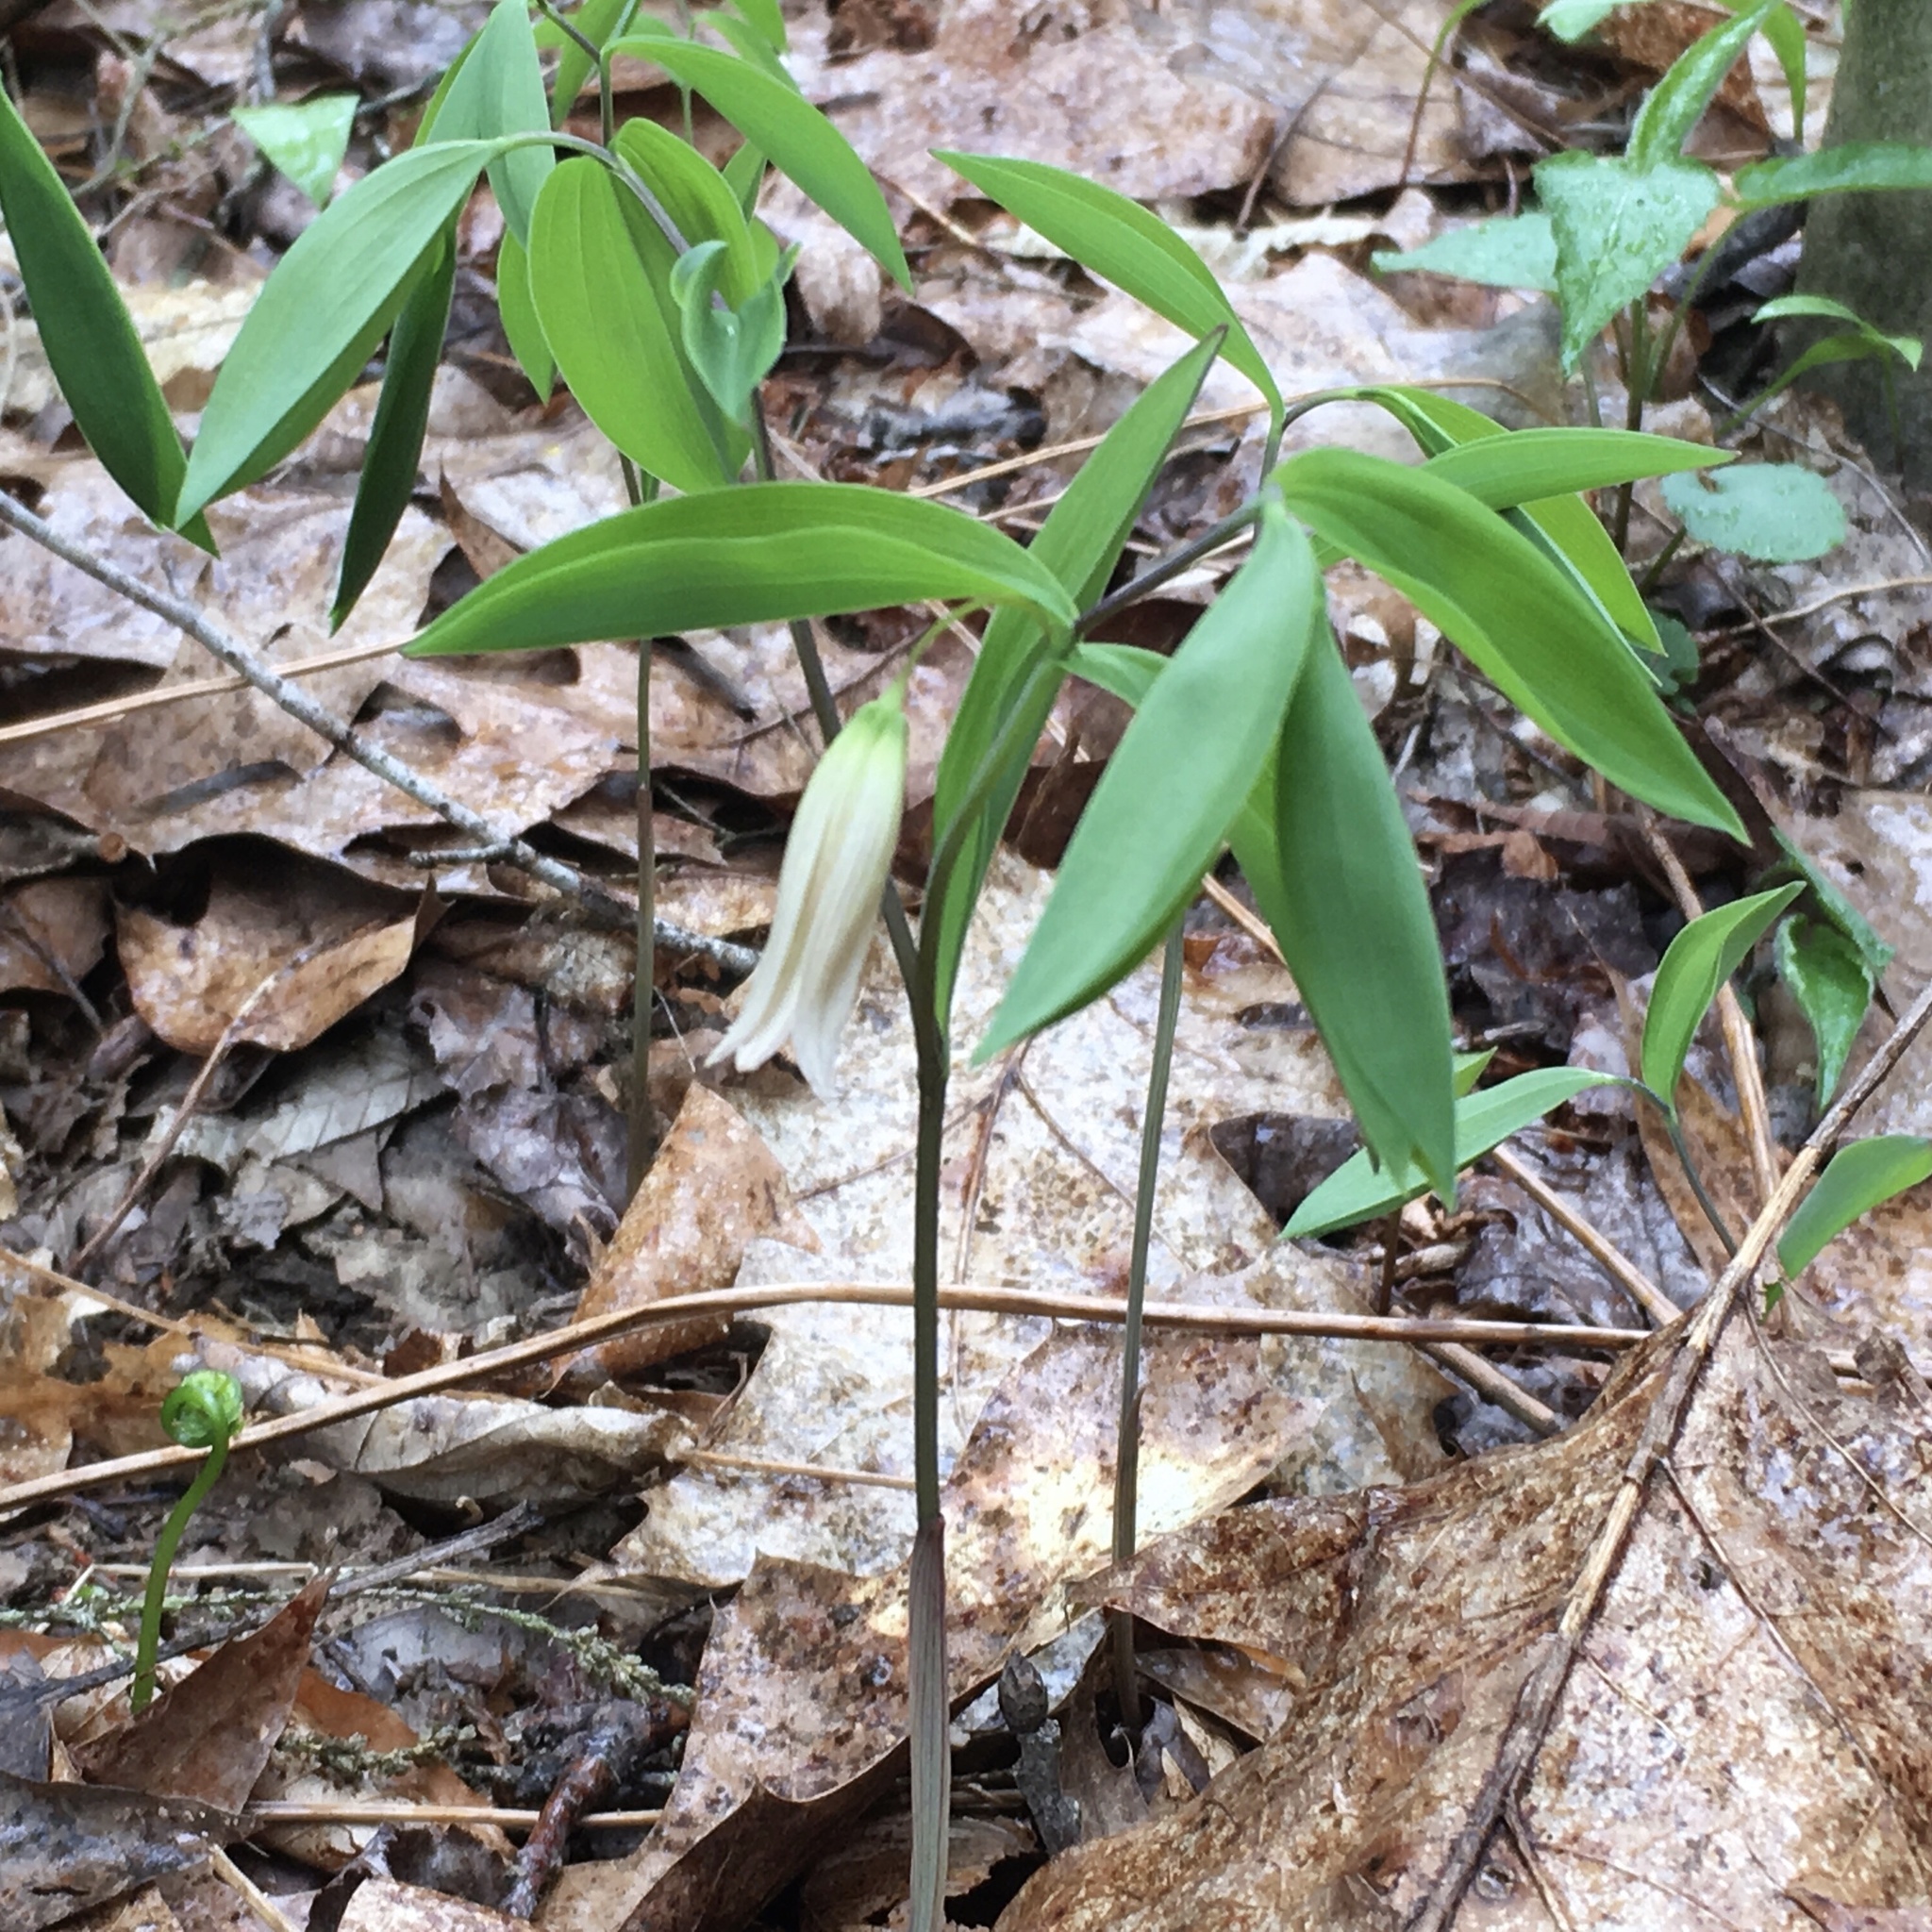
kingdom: Plantae
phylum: Tracheophyta
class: Liliopsida
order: Liliales
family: Colchicaceae
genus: Uvularia
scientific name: Uvularia sessilifolia
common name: Straw-lily
